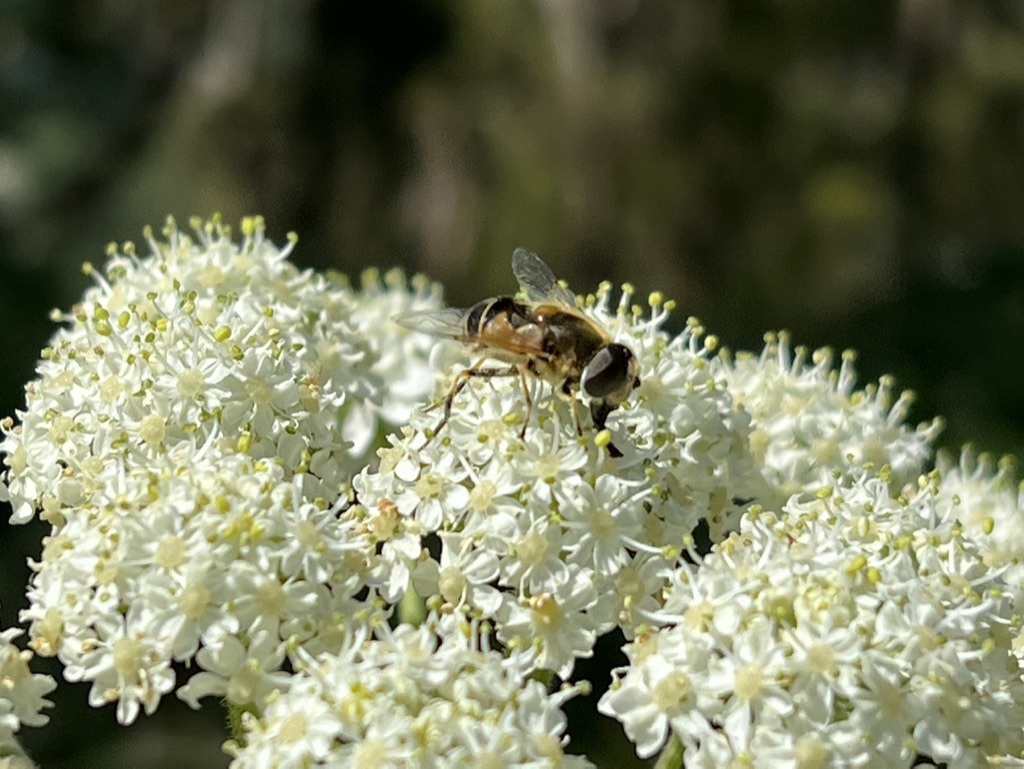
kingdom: Animalia
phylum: Arthropoda
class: Insecta
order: Diptera
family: Syrphidae
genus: Eristalis
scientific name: Eristalis hirta
